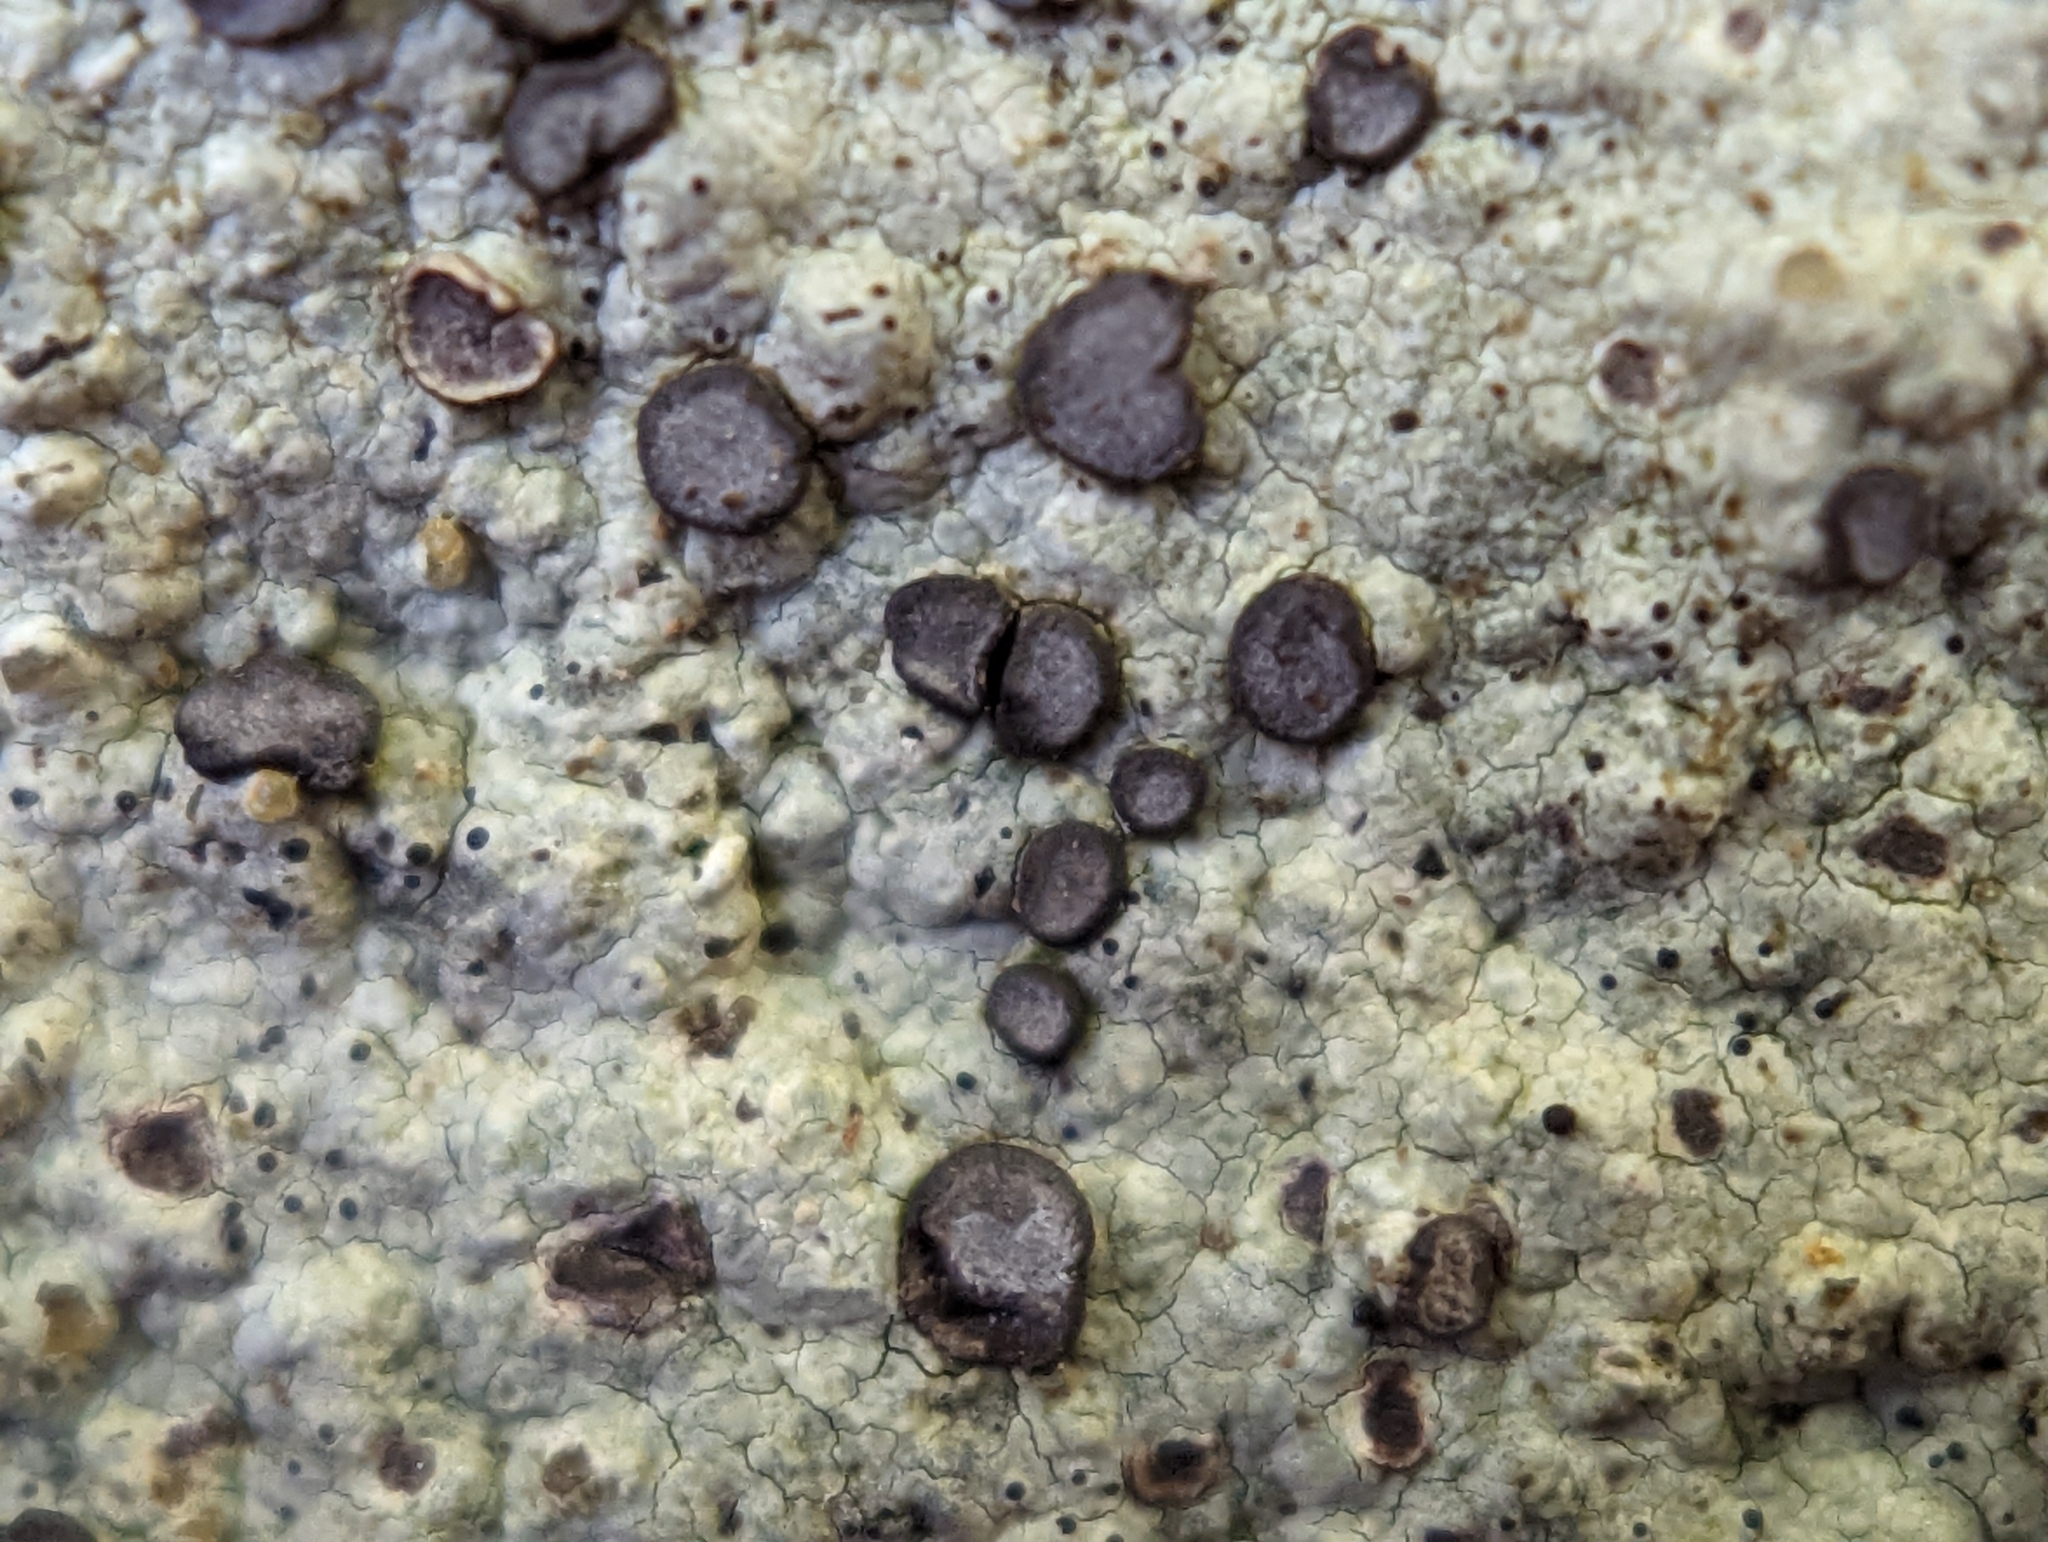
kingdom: Fungi
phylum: Ascomycota
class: Lecanoromycetes
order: Lecideales
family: Lecideaceae
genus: Porpidia
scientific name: Porpidia albocaerulescens
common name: Smokey-eyed boulder lichen
